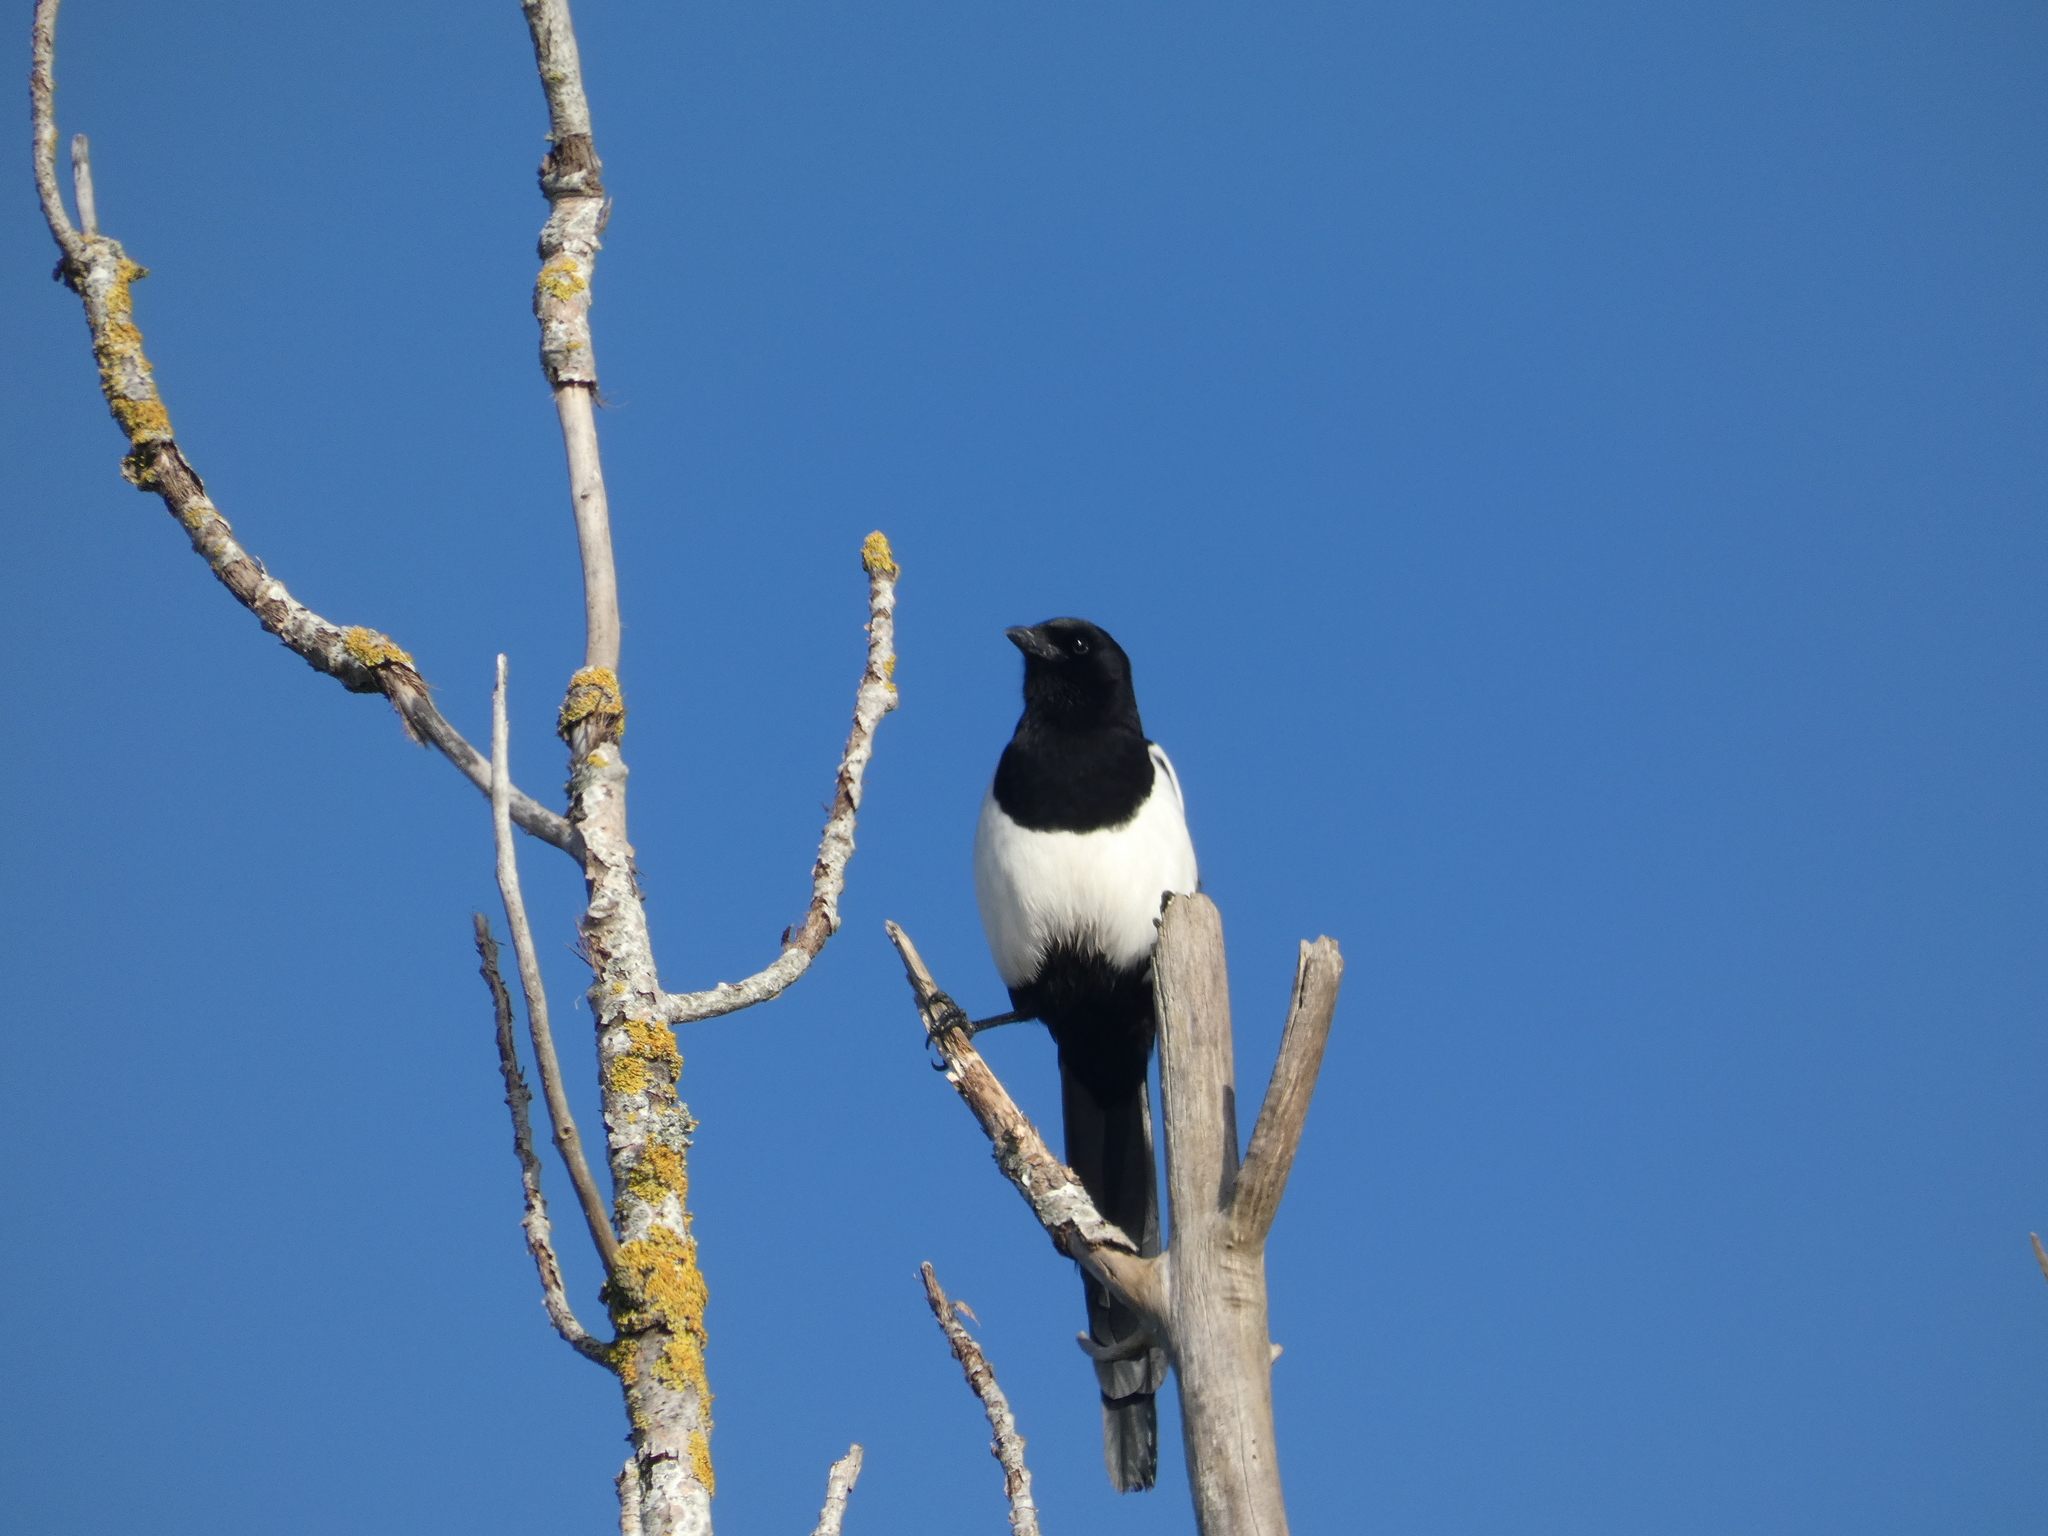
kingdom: Animalia
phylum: Chordata
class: Aves
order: Passeriformes
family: Corvidae
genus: Pica
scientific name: Pica pica
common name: Eurasian magpie
